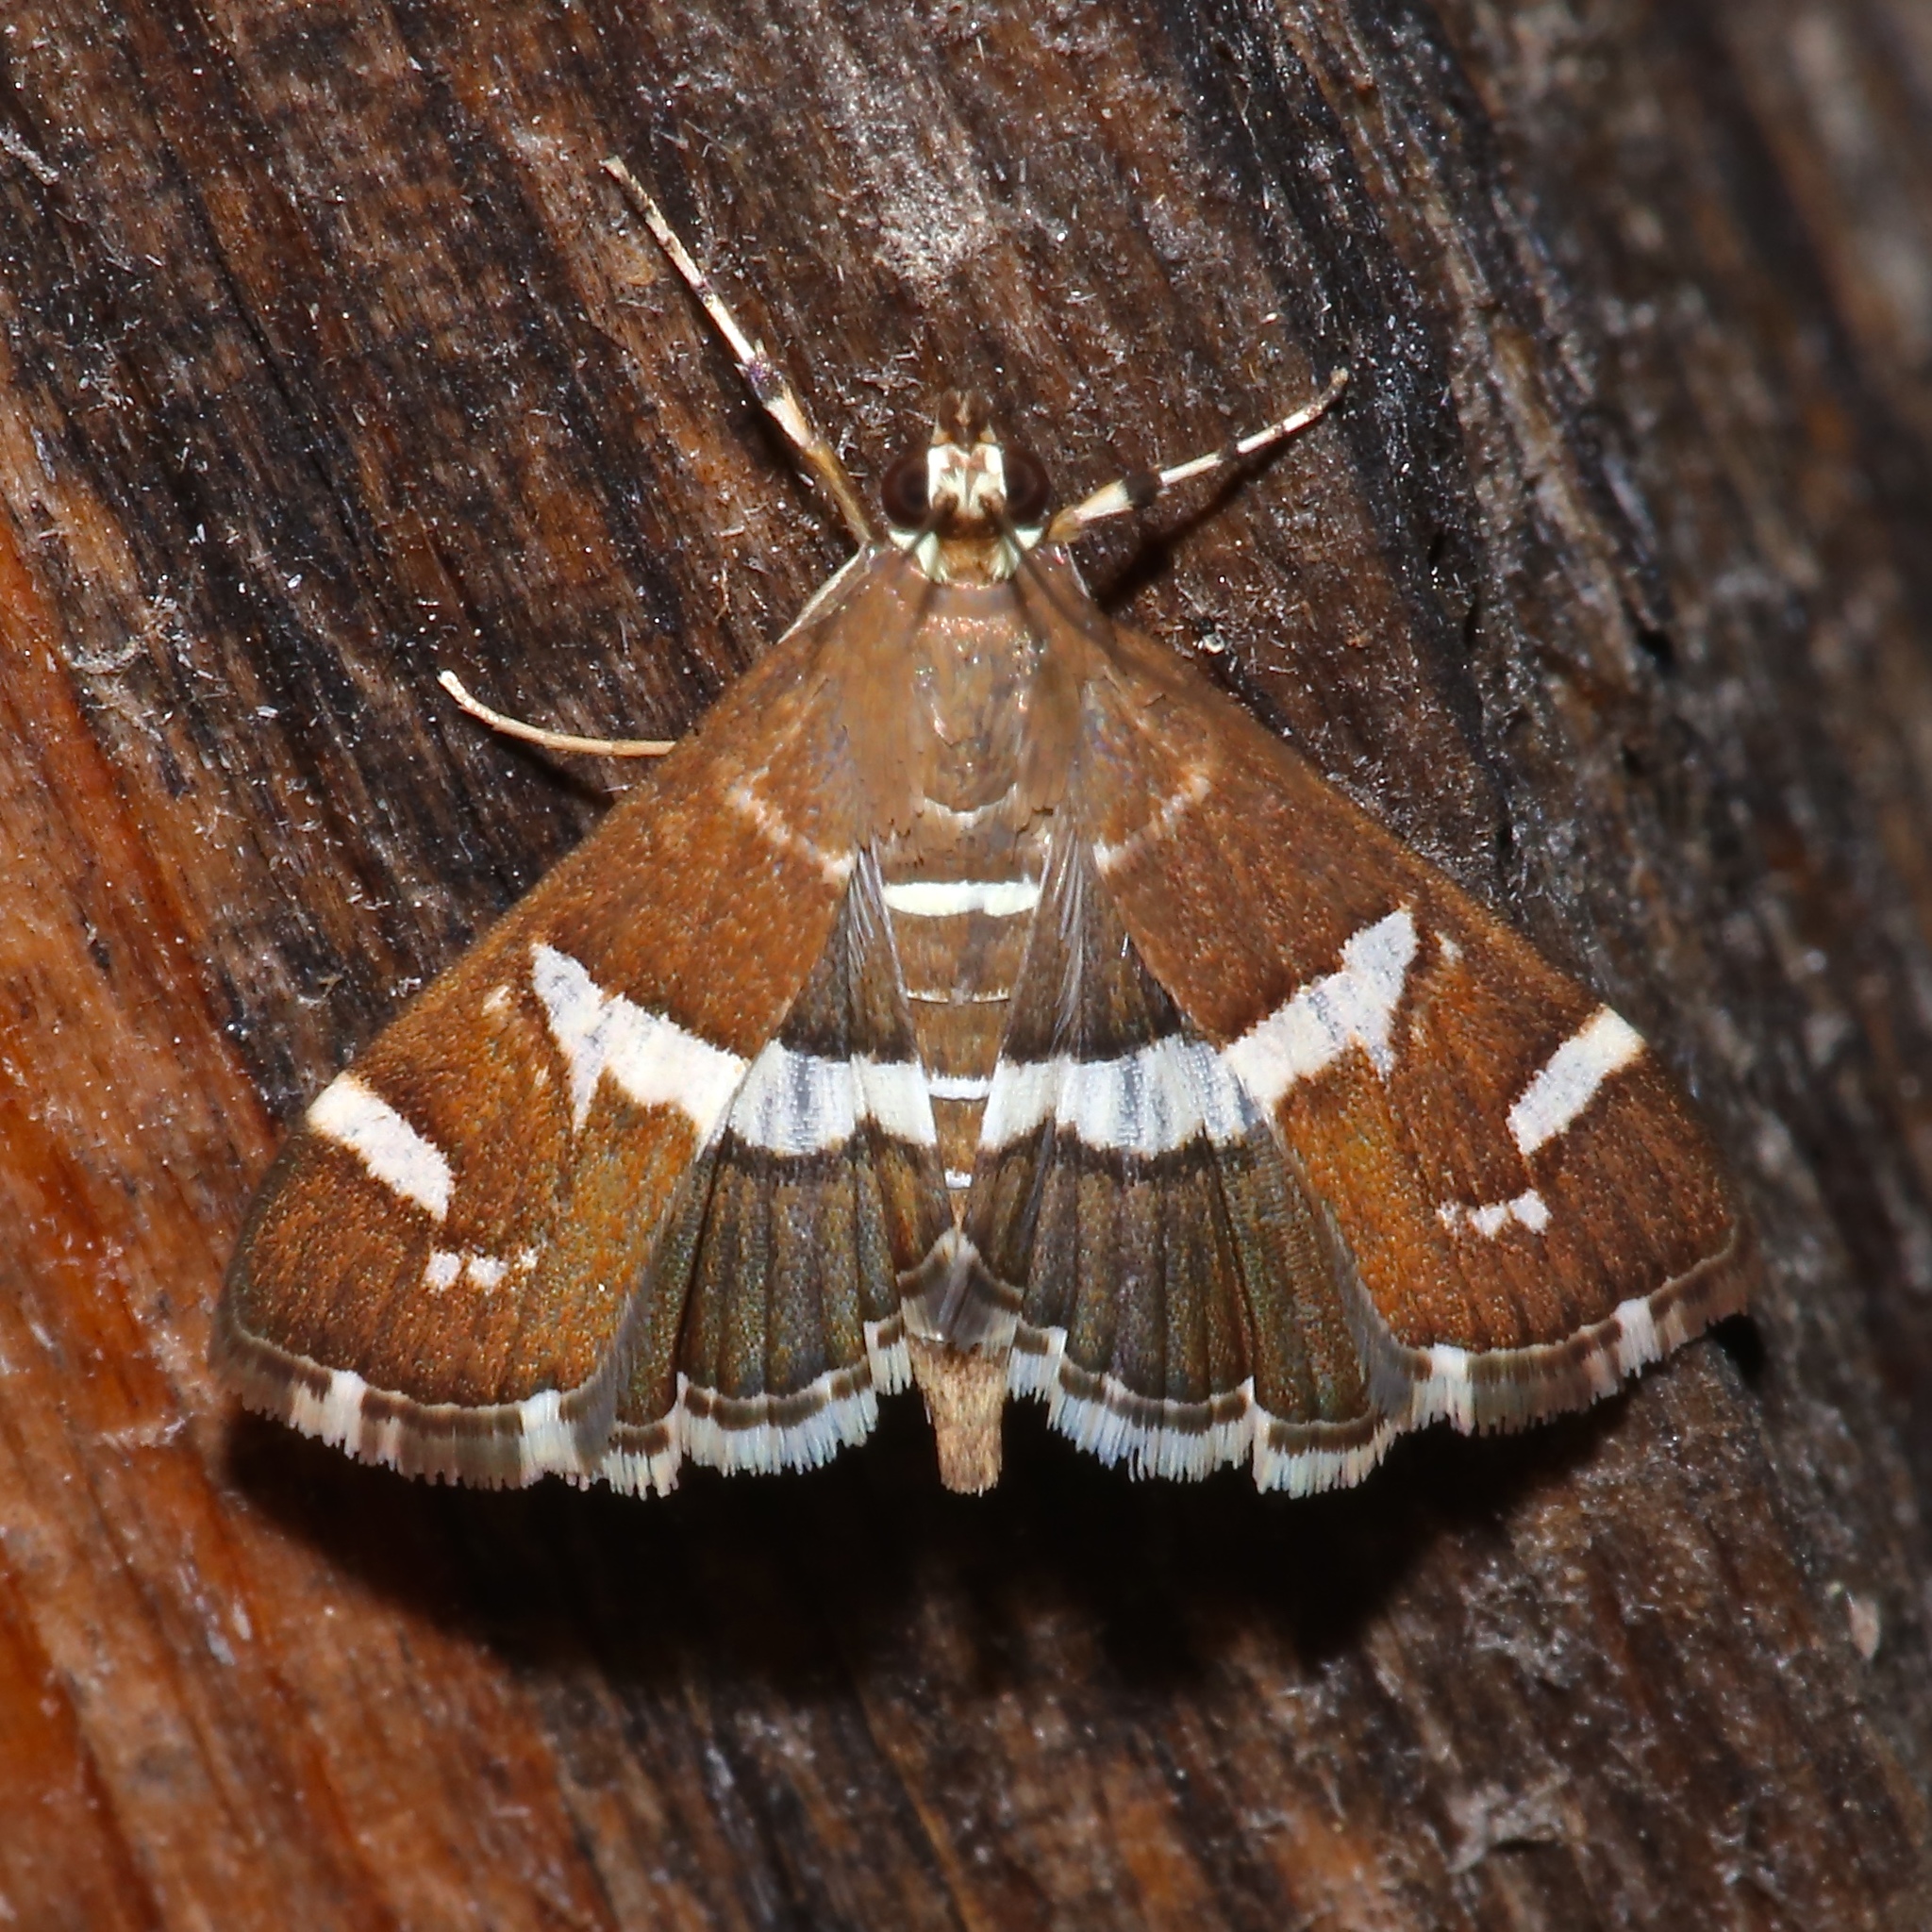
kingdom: Animalia
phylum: Arthropoda
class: Insecta
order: Lepidoptera
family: Crambidae
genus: Spoladea
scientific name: Spoladea recurvalis
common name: Beet webworm moth
